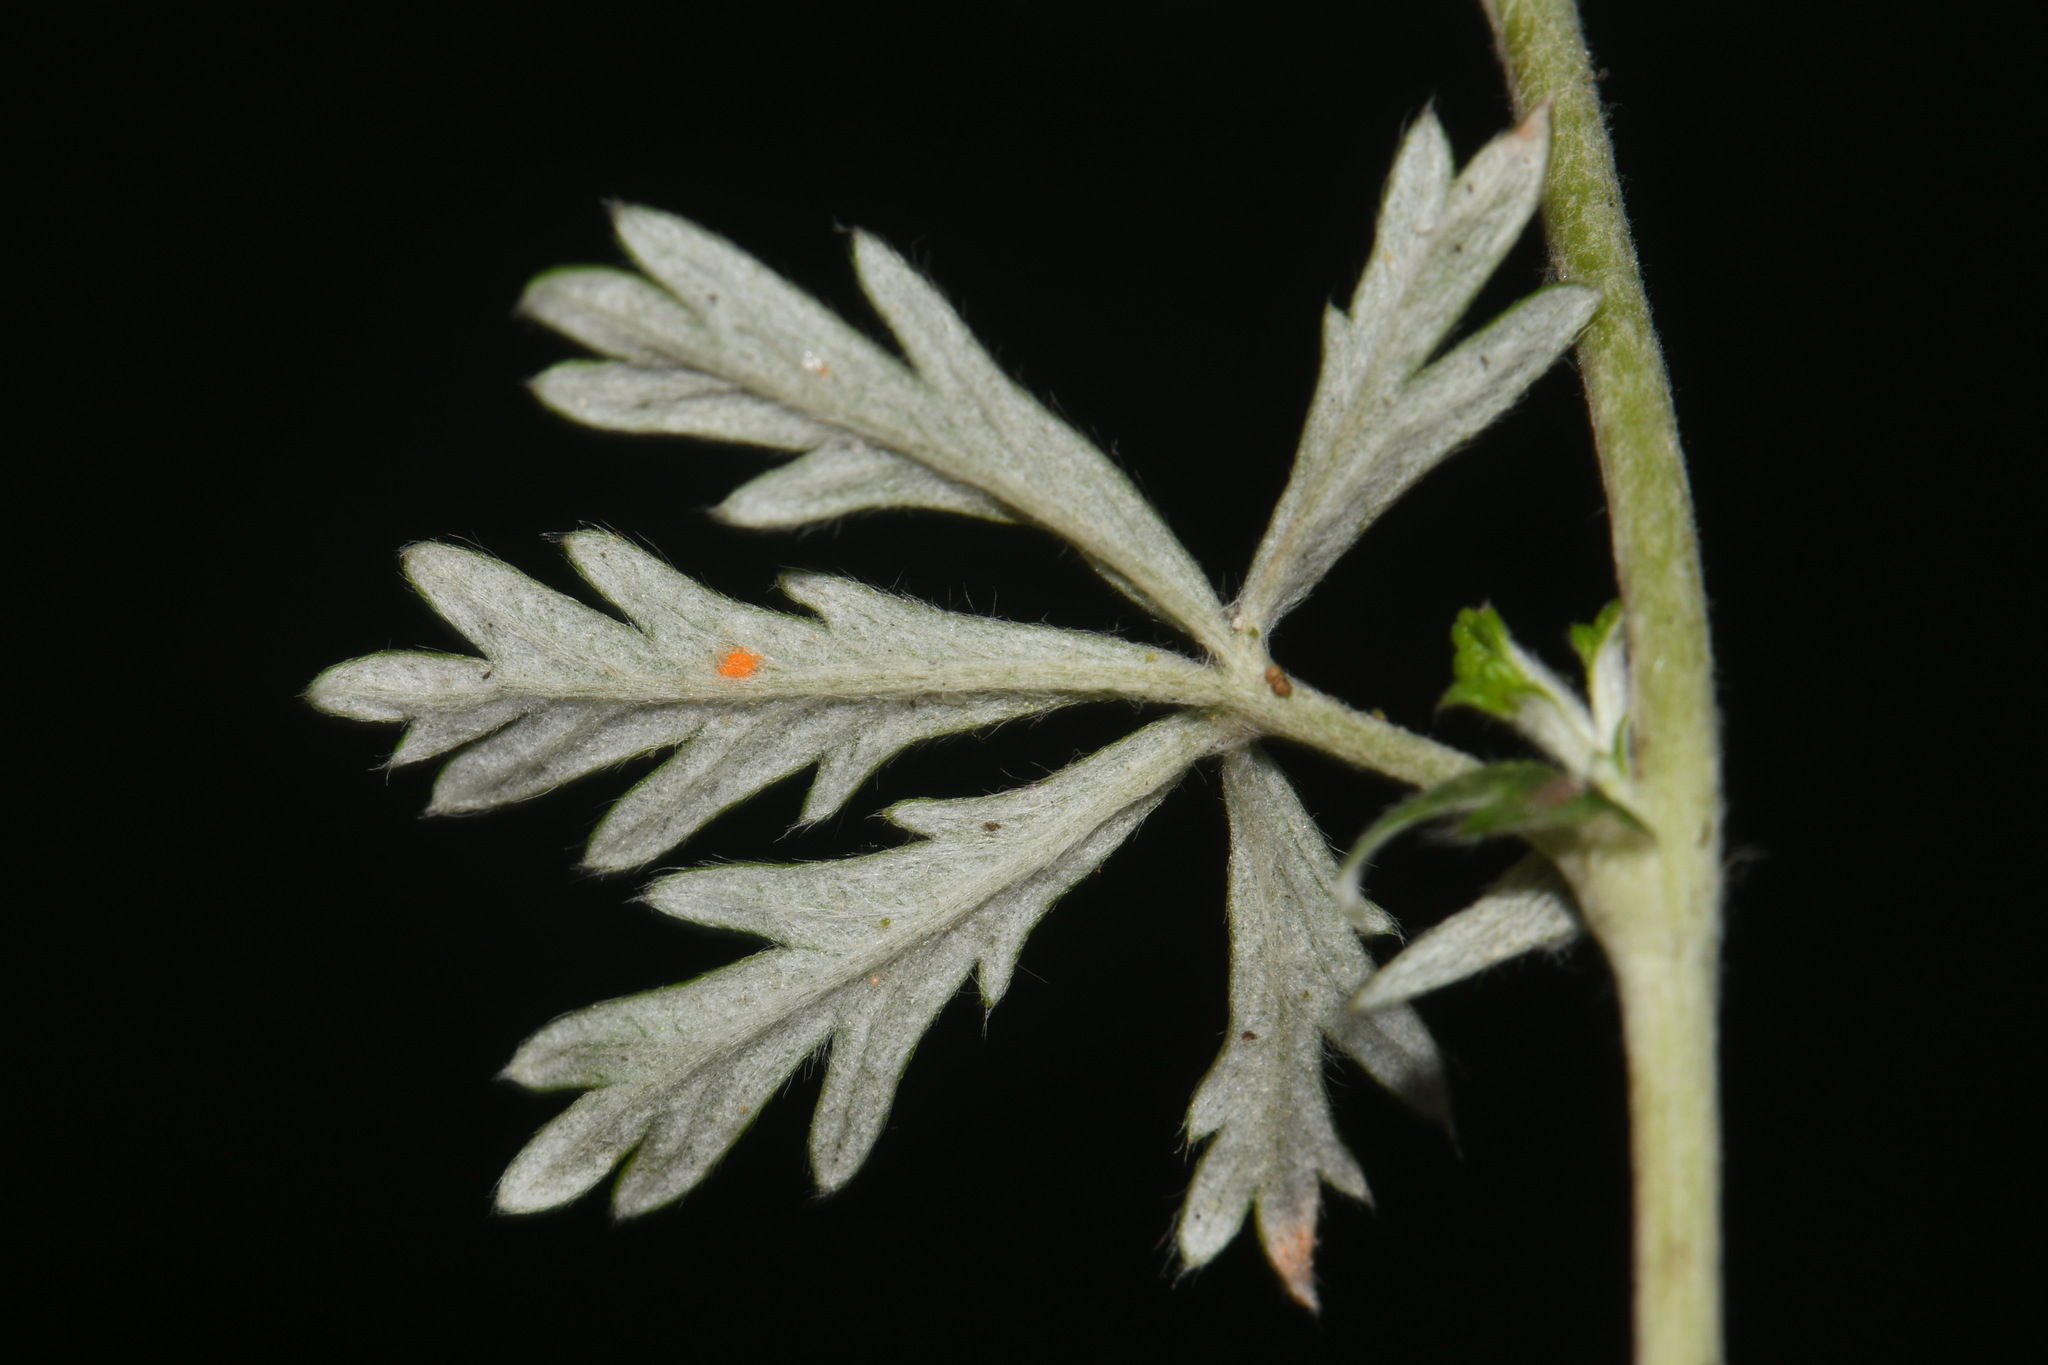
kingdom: Plantae
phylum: Tracheophyta
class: Magnoliopsida
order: Rosales
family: Rosaceae
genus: Potentilla
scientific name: Potentilla argentea
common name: Hoary cinquefoil
